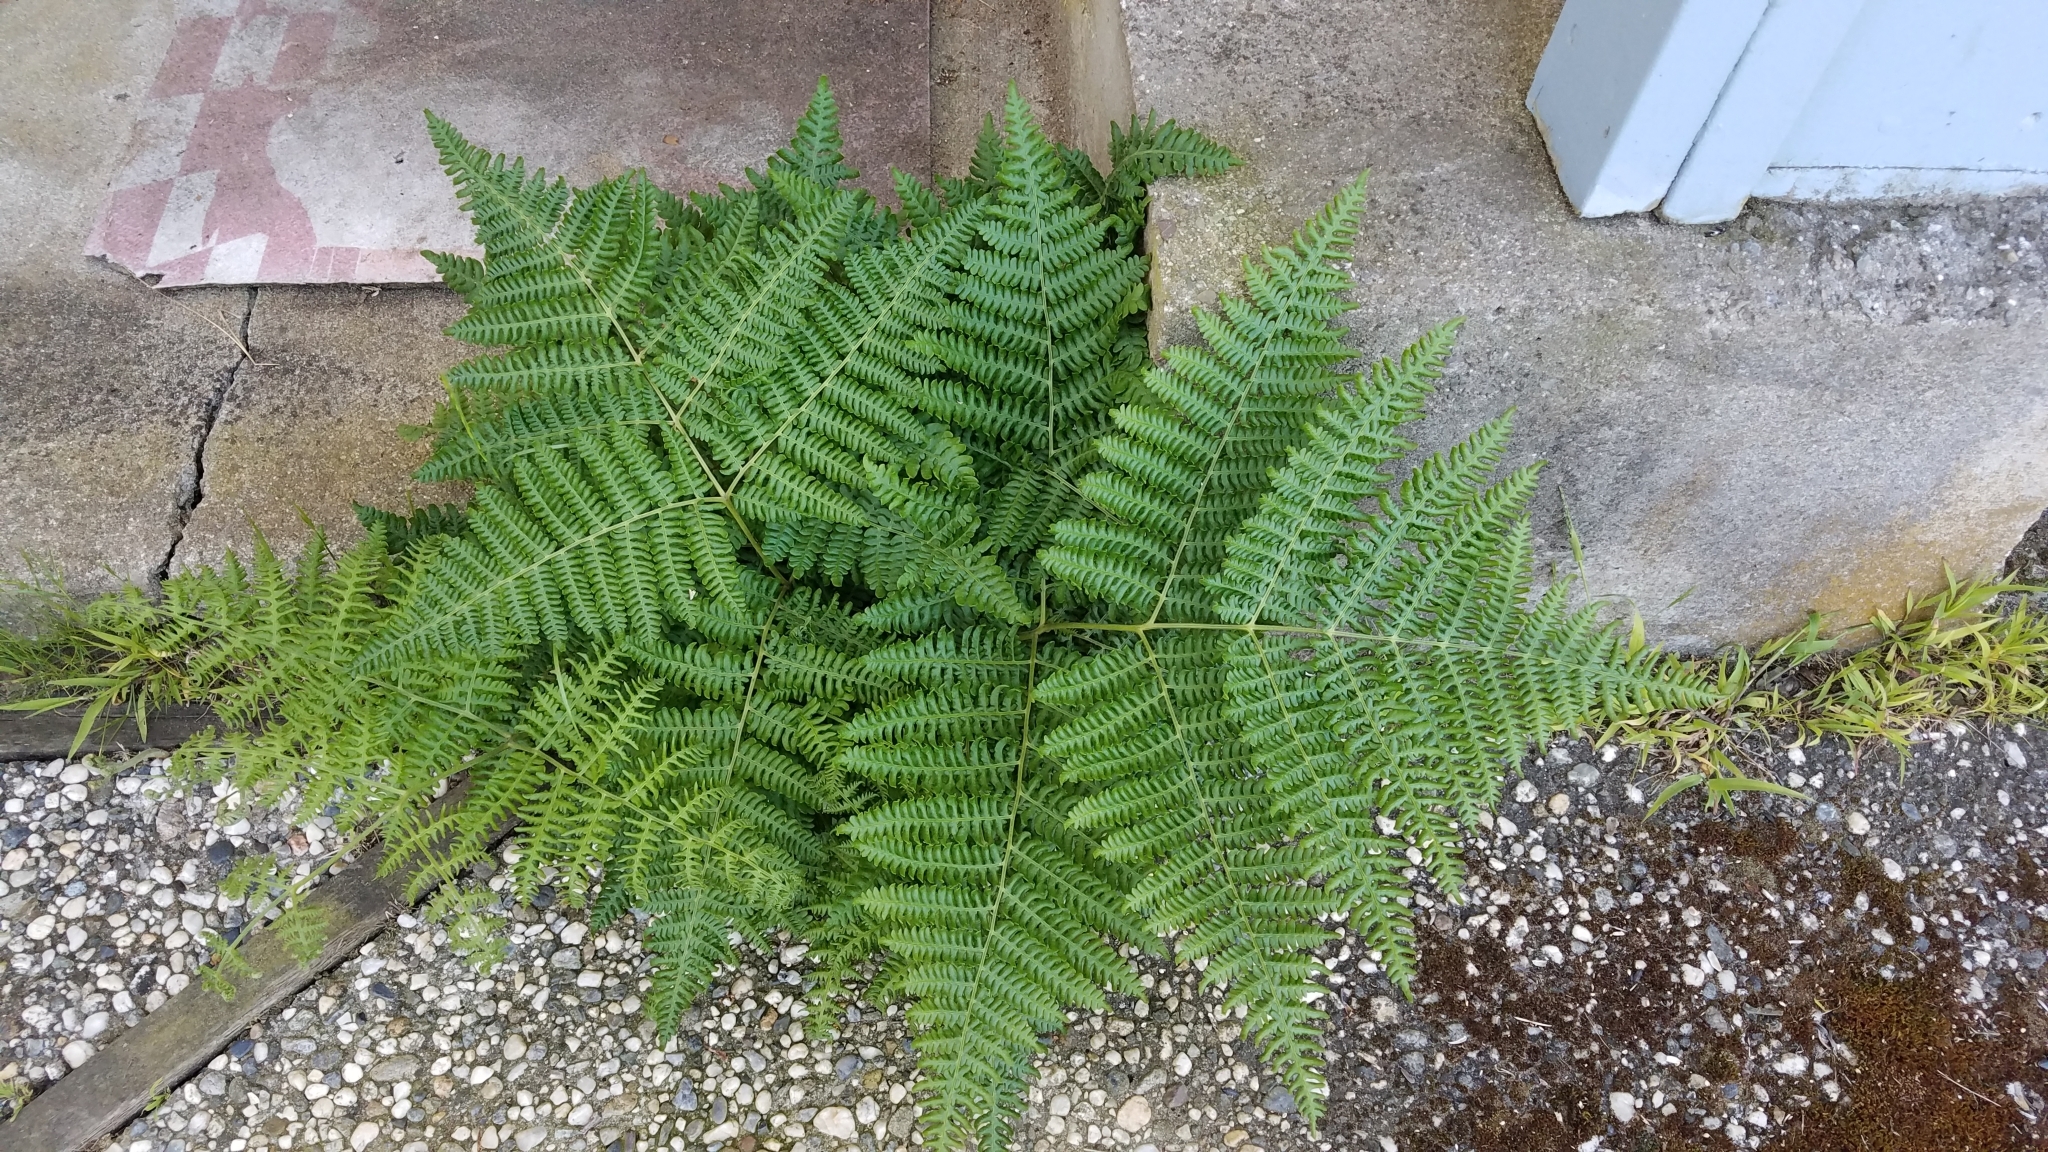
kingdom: Plantae
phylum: Tracheophyta
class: Polypodiopsida
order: Polypodiales
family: Dennstaedtiaceae
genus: Pteridium
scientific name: Pteridium aquilinum
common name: Bracken
